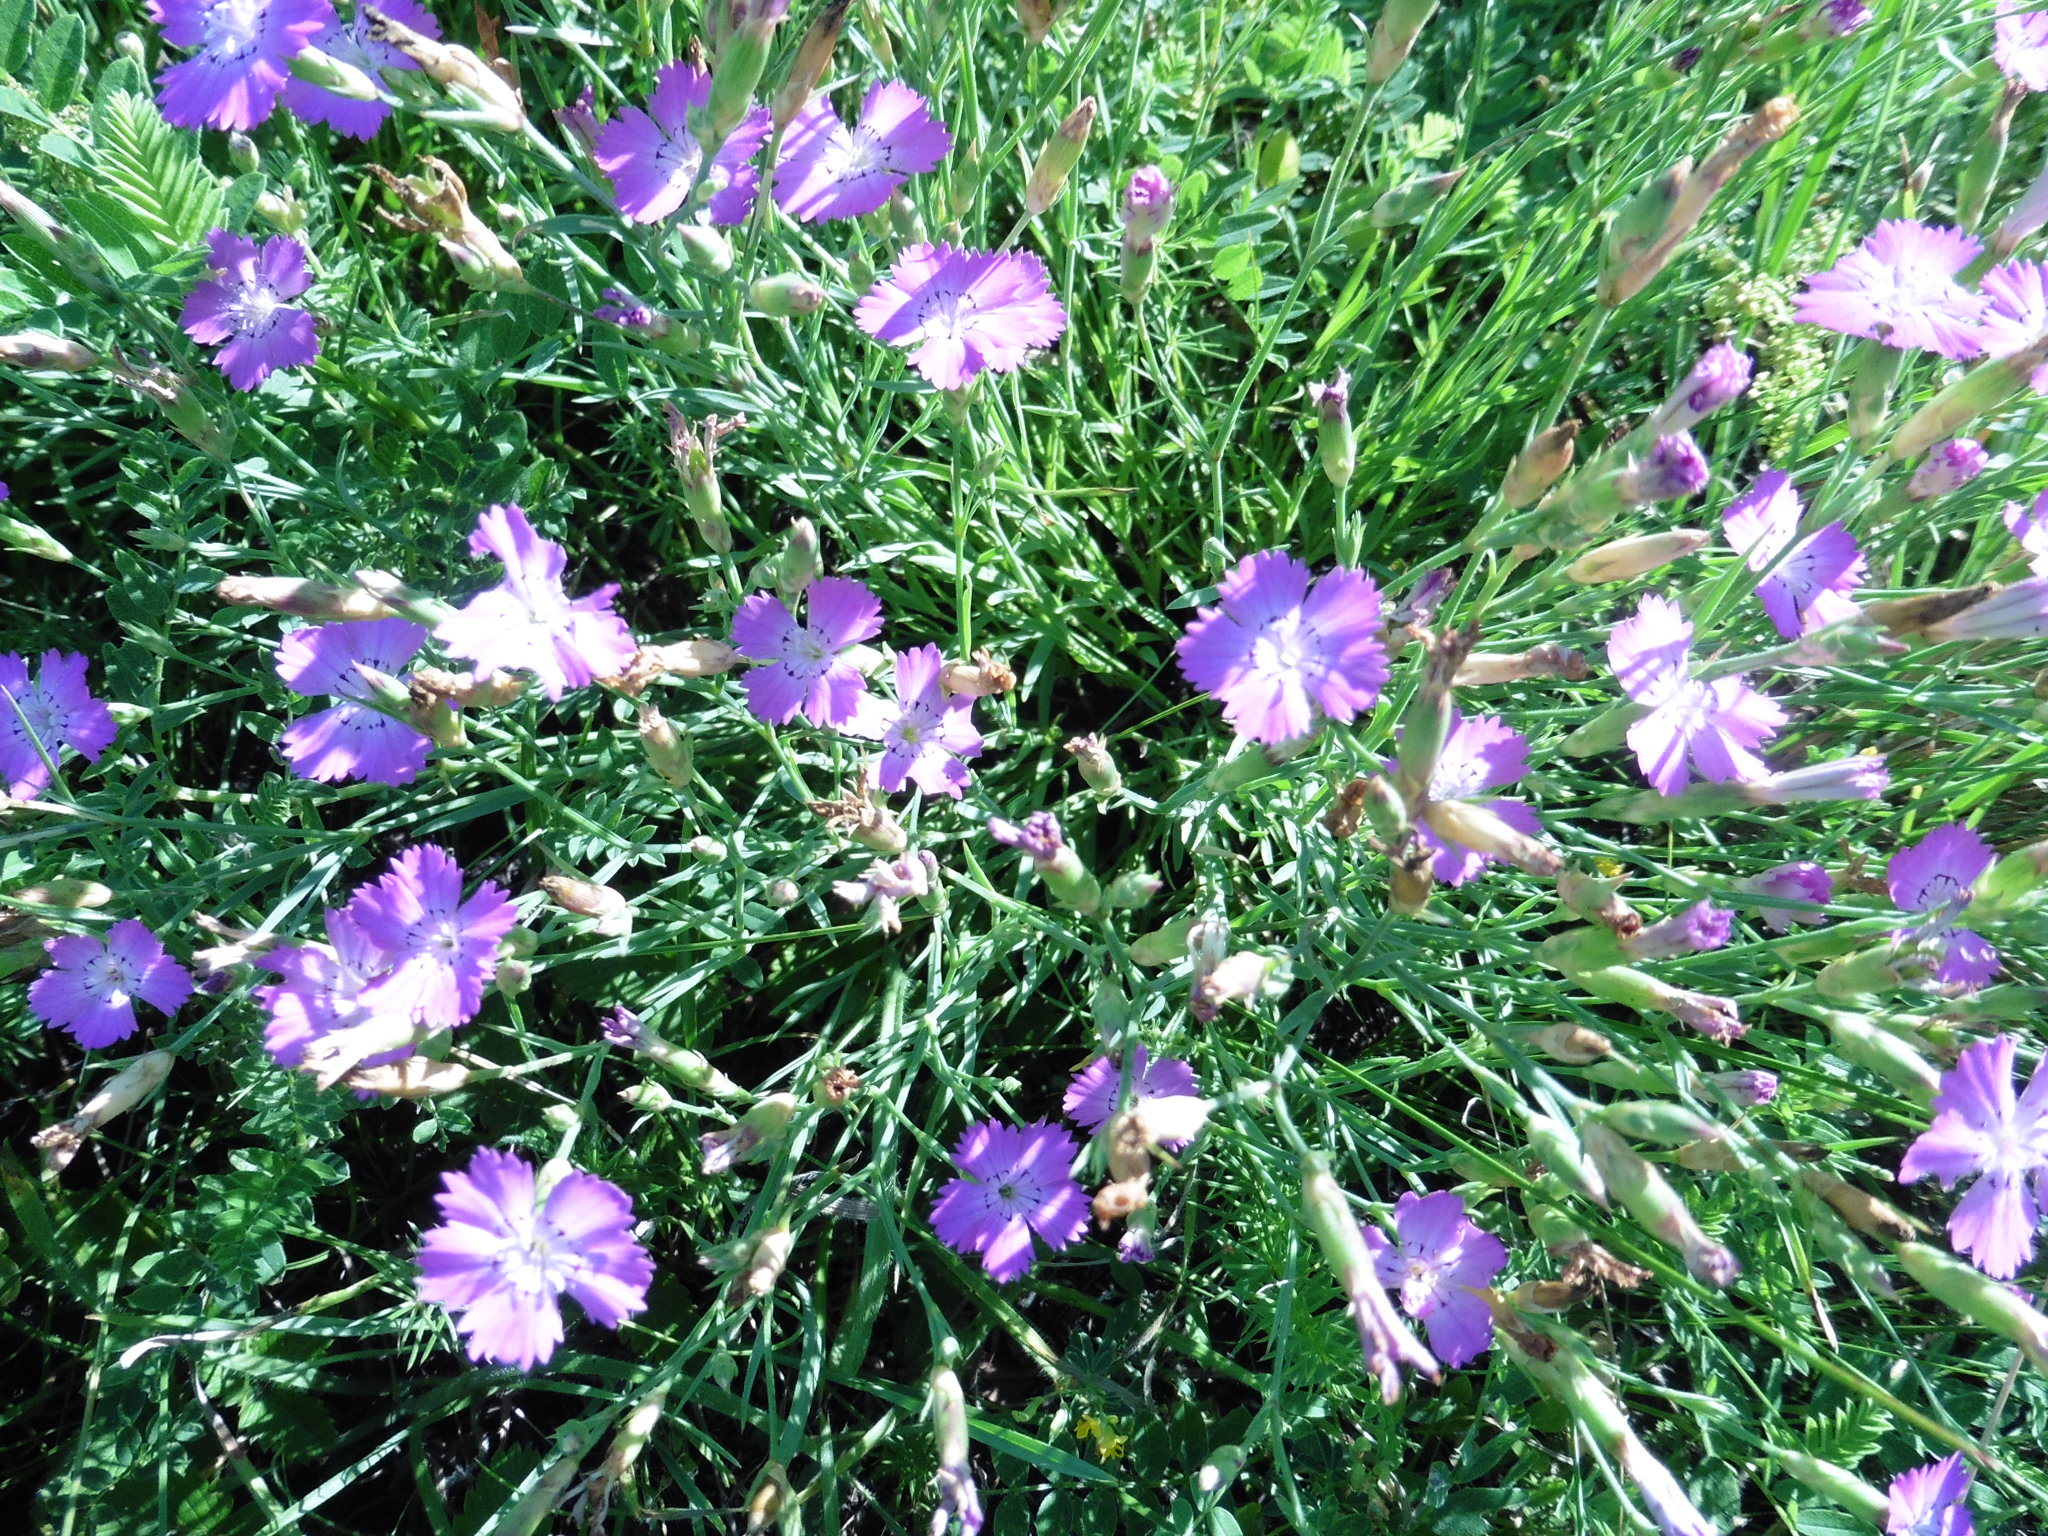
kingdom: Plantae
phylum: Tracheophyta
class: Magnoliopsida
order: Caryophyllales
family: Caryophyllaceae
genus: Dianthus
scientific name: Dianthus campestris
